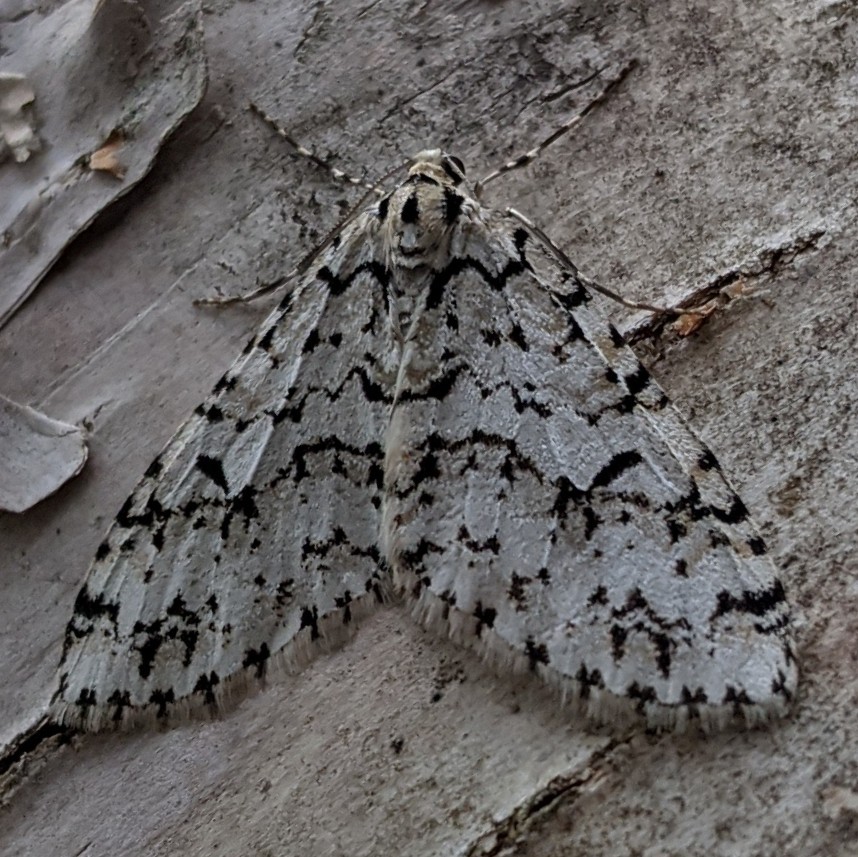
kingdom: Animalia
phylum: Arthropoda
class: Insecta
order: Lepidoptera
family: Geometridae
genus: Cladara
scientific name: Cladara atroliturata
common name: Scribbler
